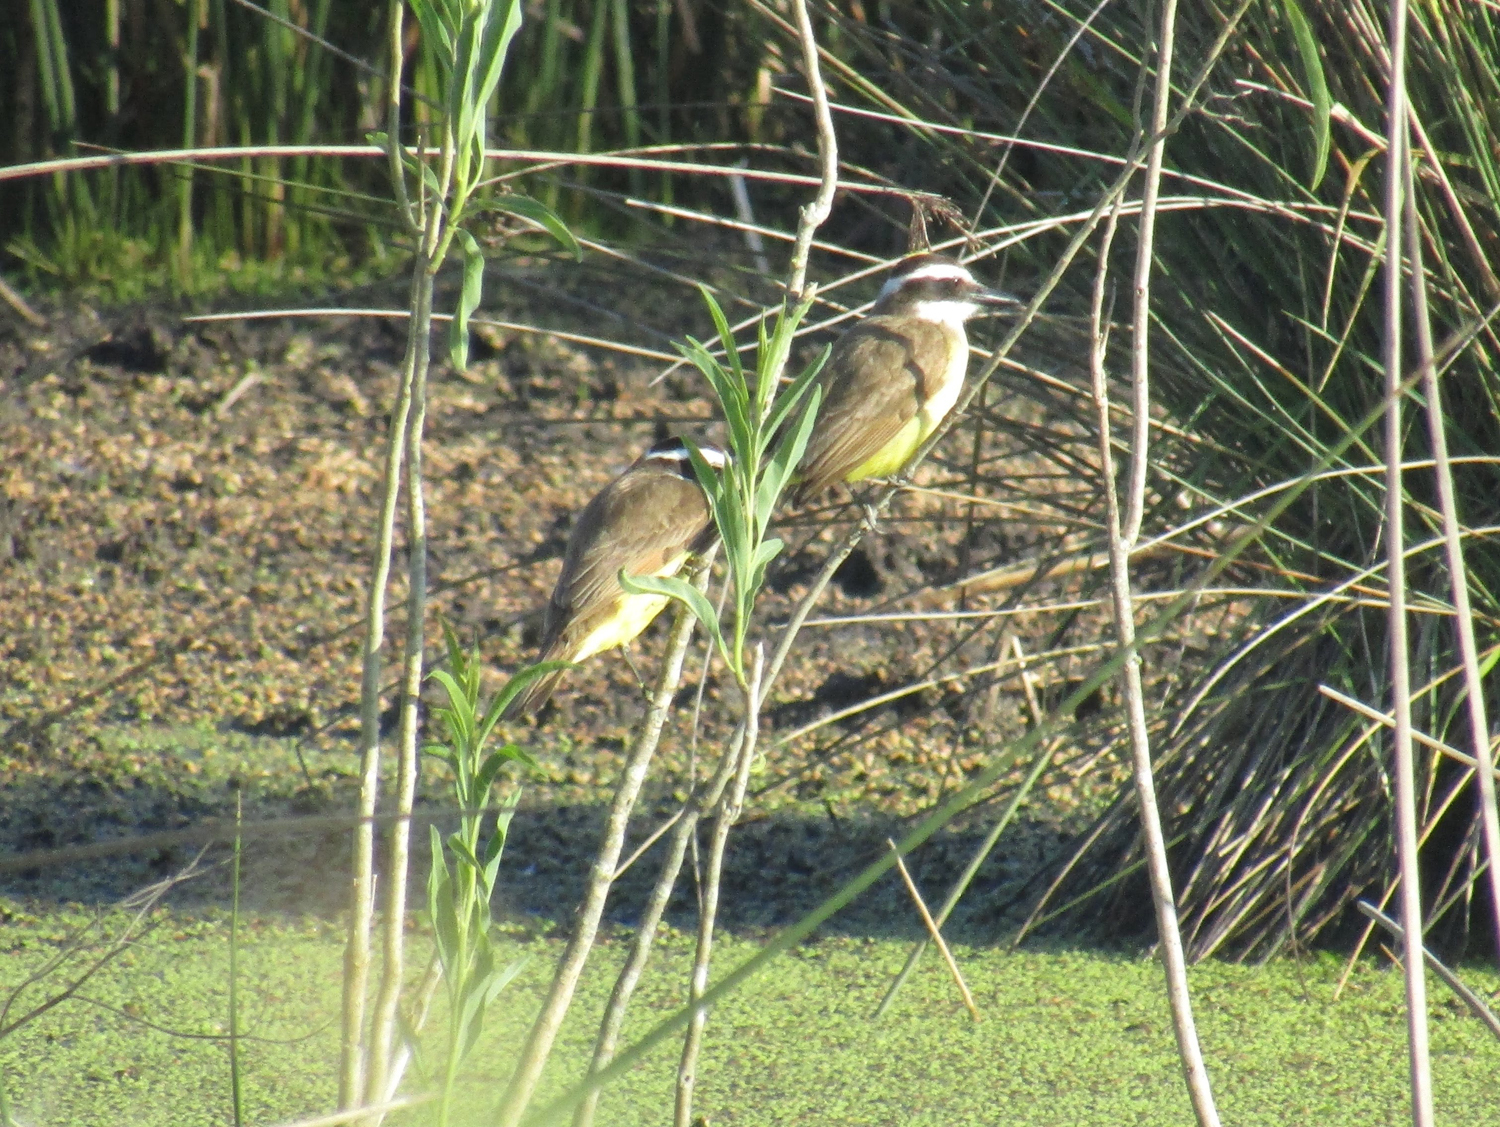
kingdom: Animalia
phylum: Chordata
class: Aves
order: Passeriformes
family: Tyrannidae
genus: Pitangus
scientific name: Pitangus sulphuratus
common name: Great kiskadee
